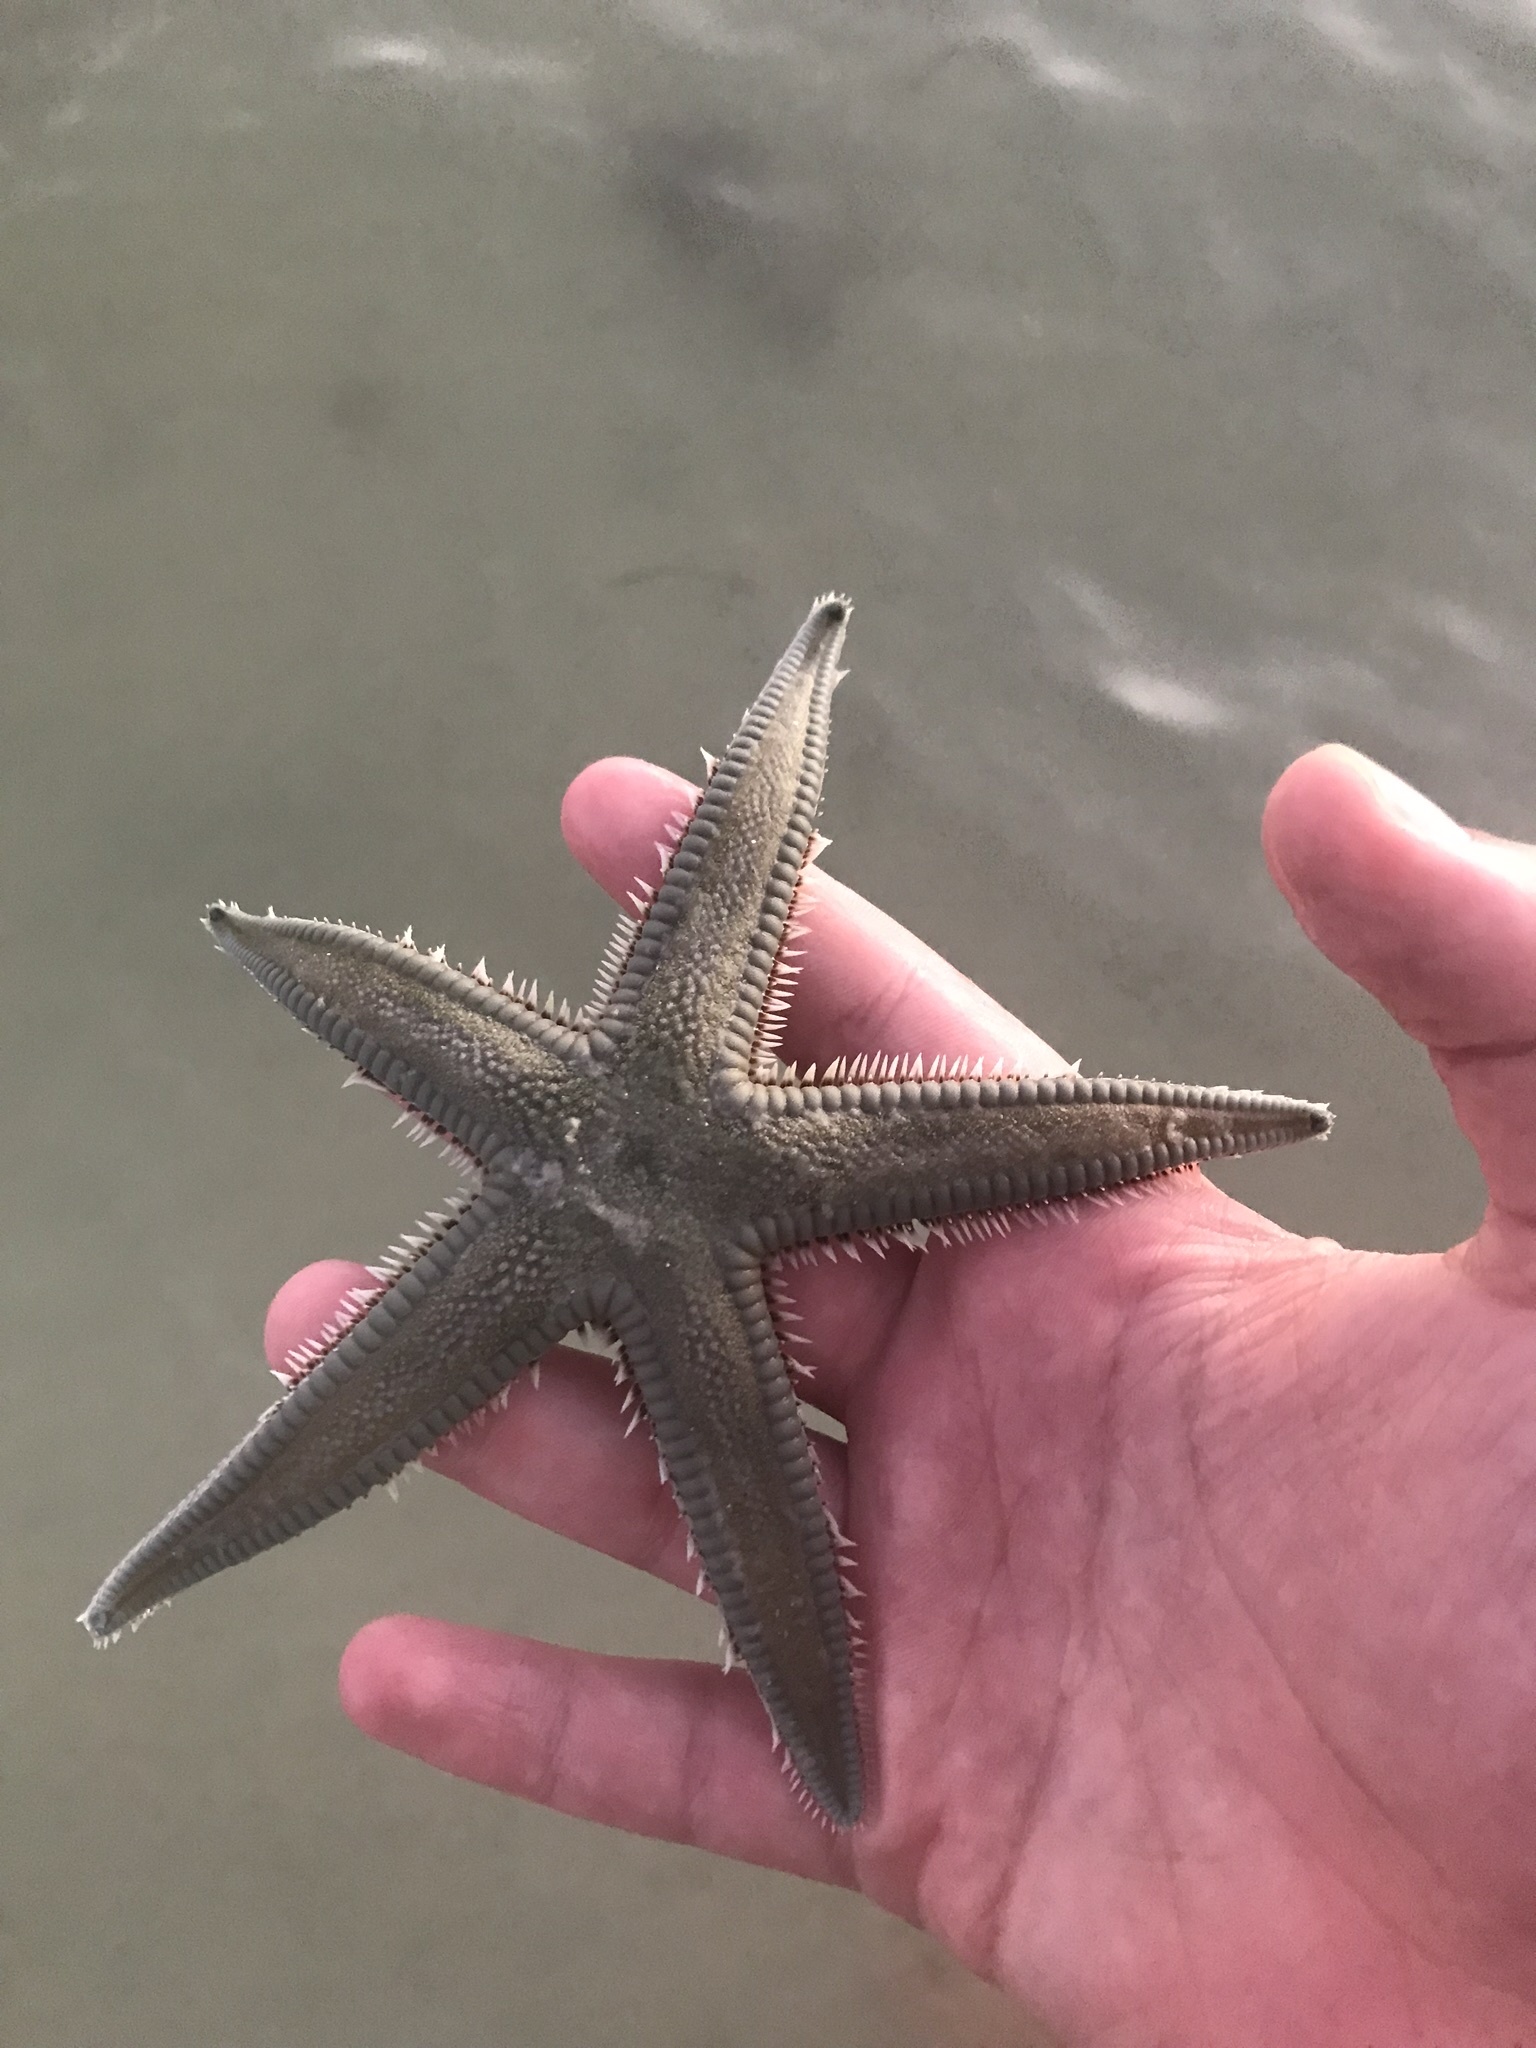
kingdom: Animalia
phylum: Echinodermata
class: Asteroidea
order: Paxillosida
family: Astropectinidae
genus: Astropecten
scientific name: Astropecten duplicatus
